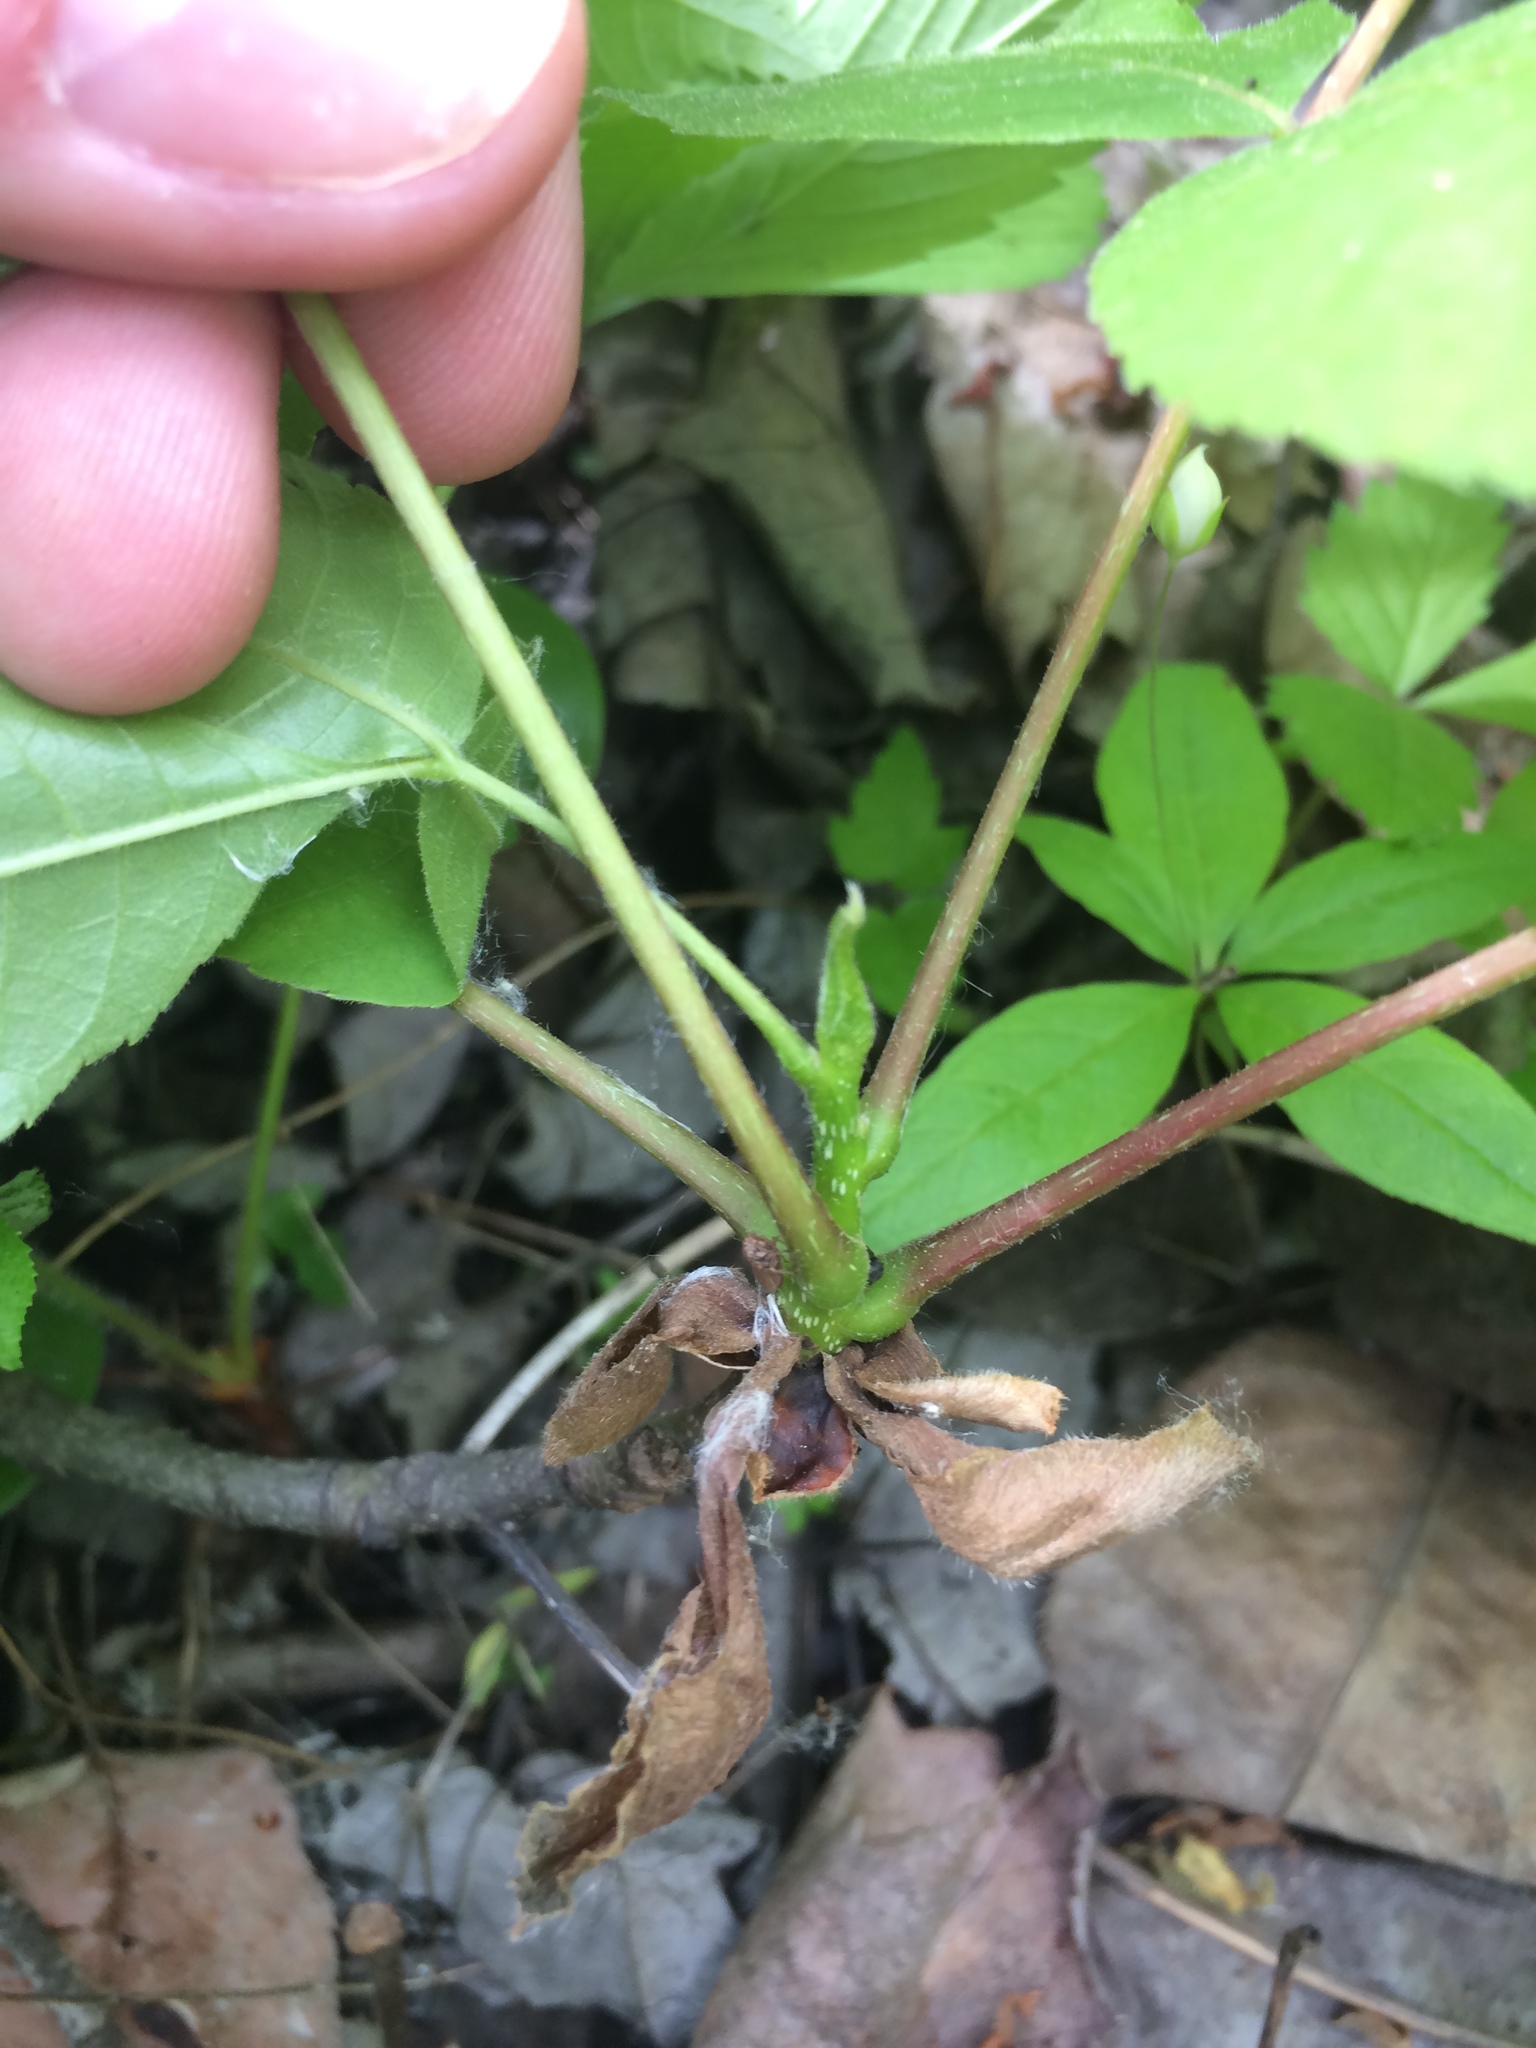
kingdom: Plantae
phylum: Tracheophyta
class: Magnoliopsida
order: Fagales
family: Juglandaceae
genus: Carya
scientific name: Carya ovata
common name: Shagbark hickory
